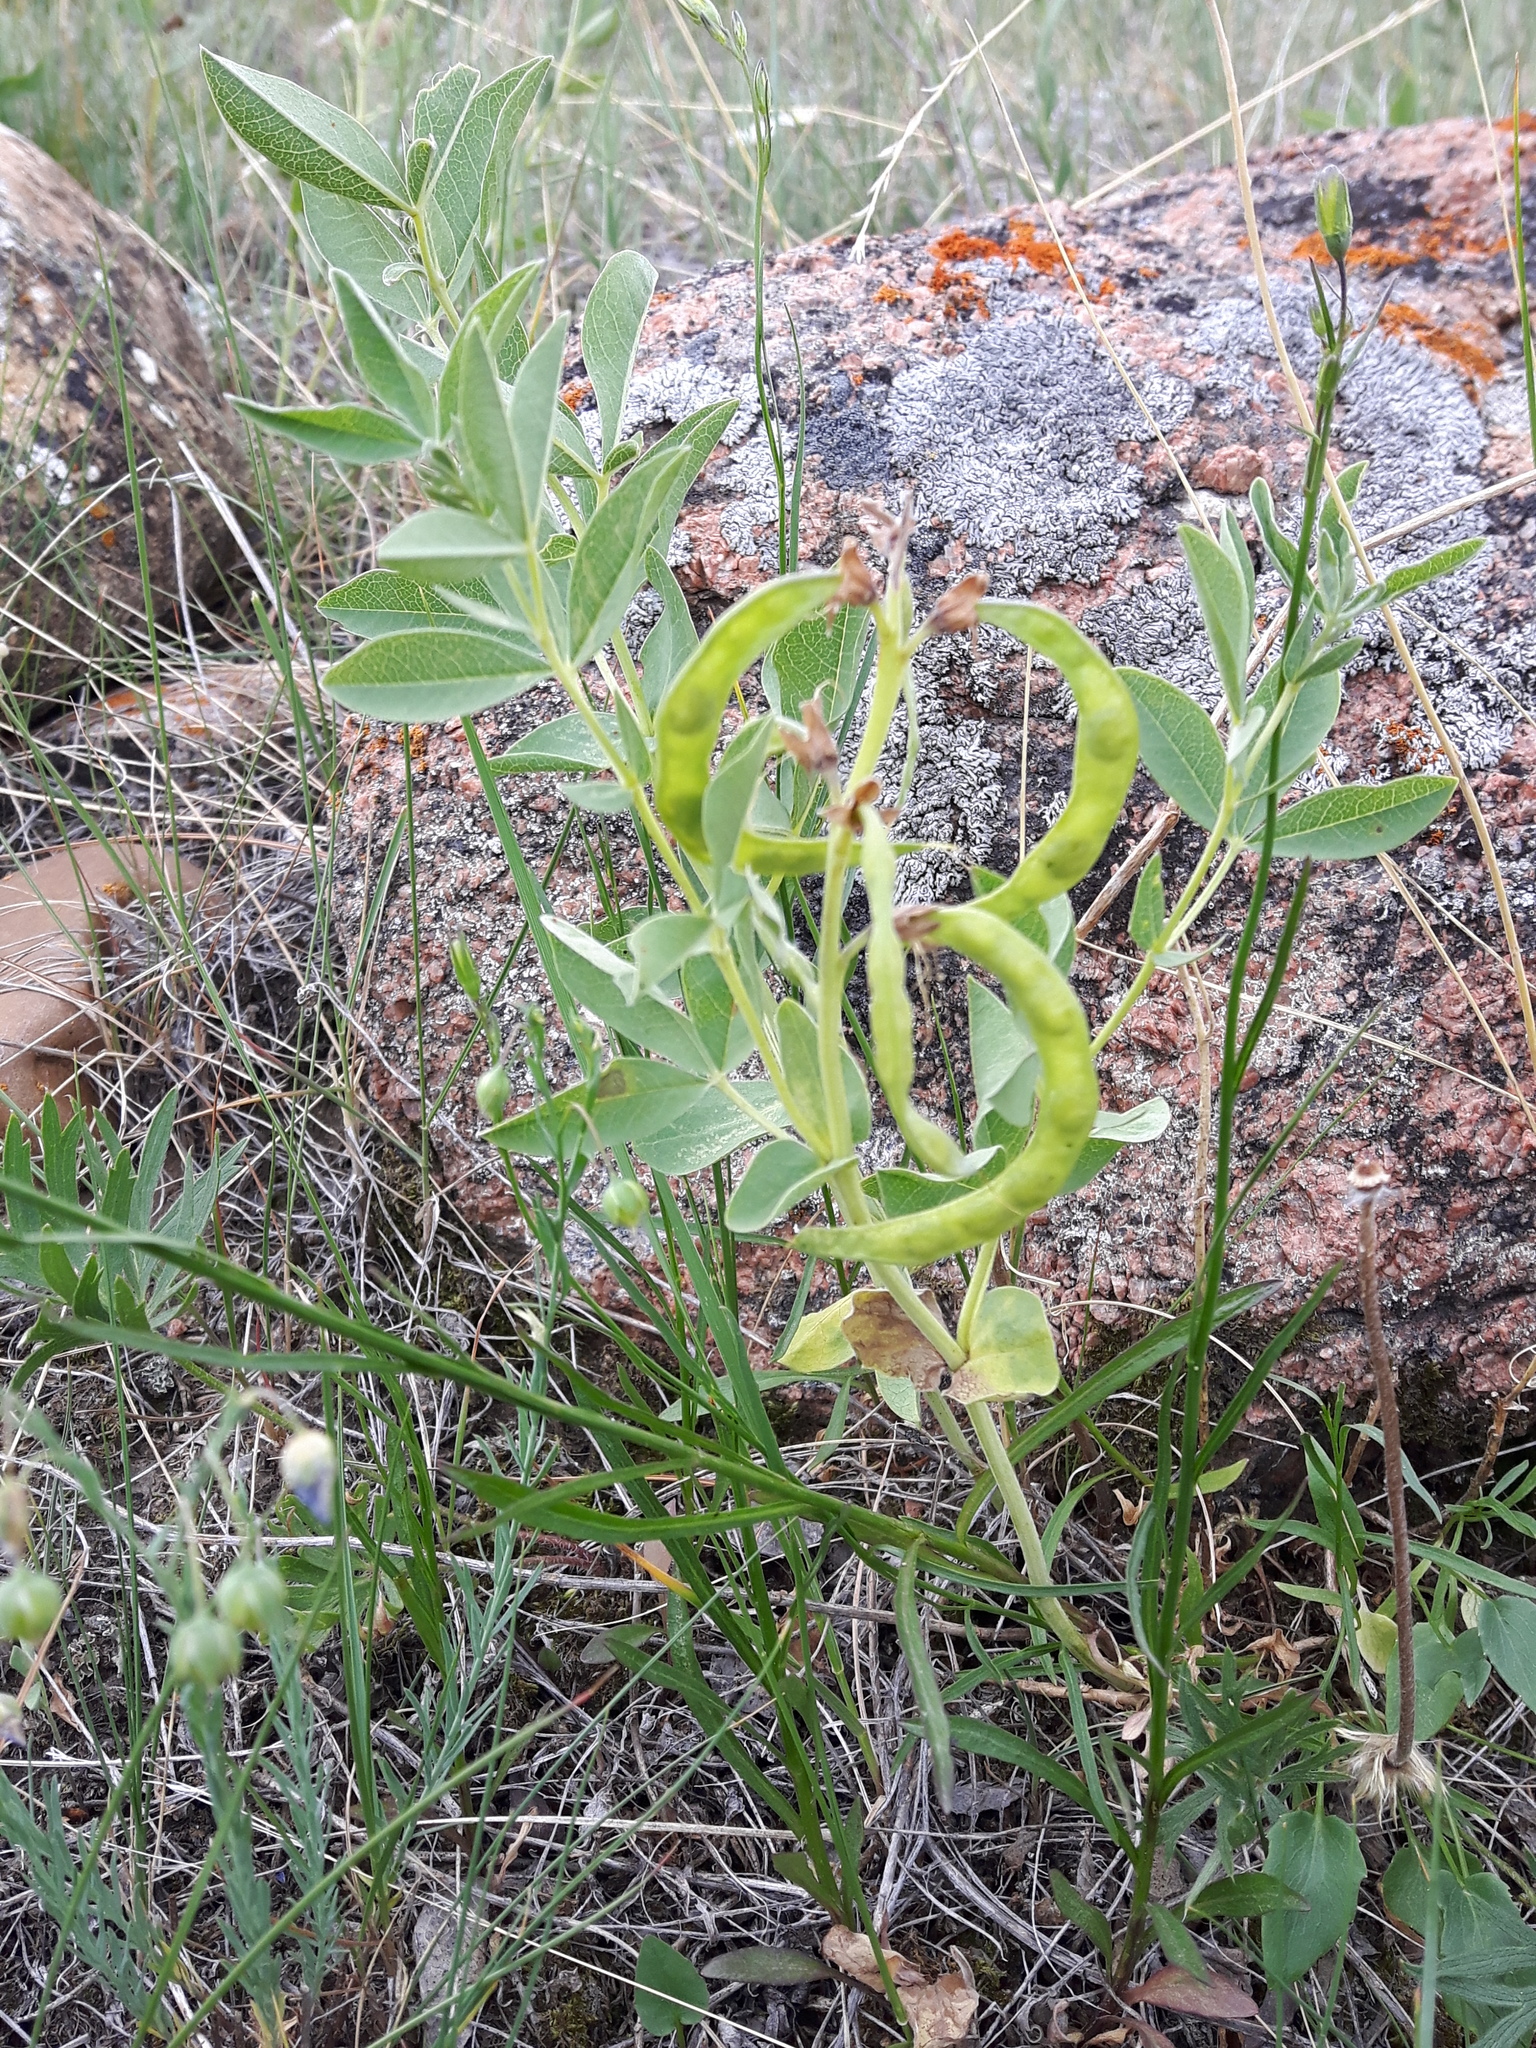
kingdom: Plantae
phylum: Tracheophyta
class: Magnoliopsida
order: Fabales
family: Fabaceae
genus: Thermopsis
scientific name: Thermopsis rhombifolia
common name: Circle-pod-pea
